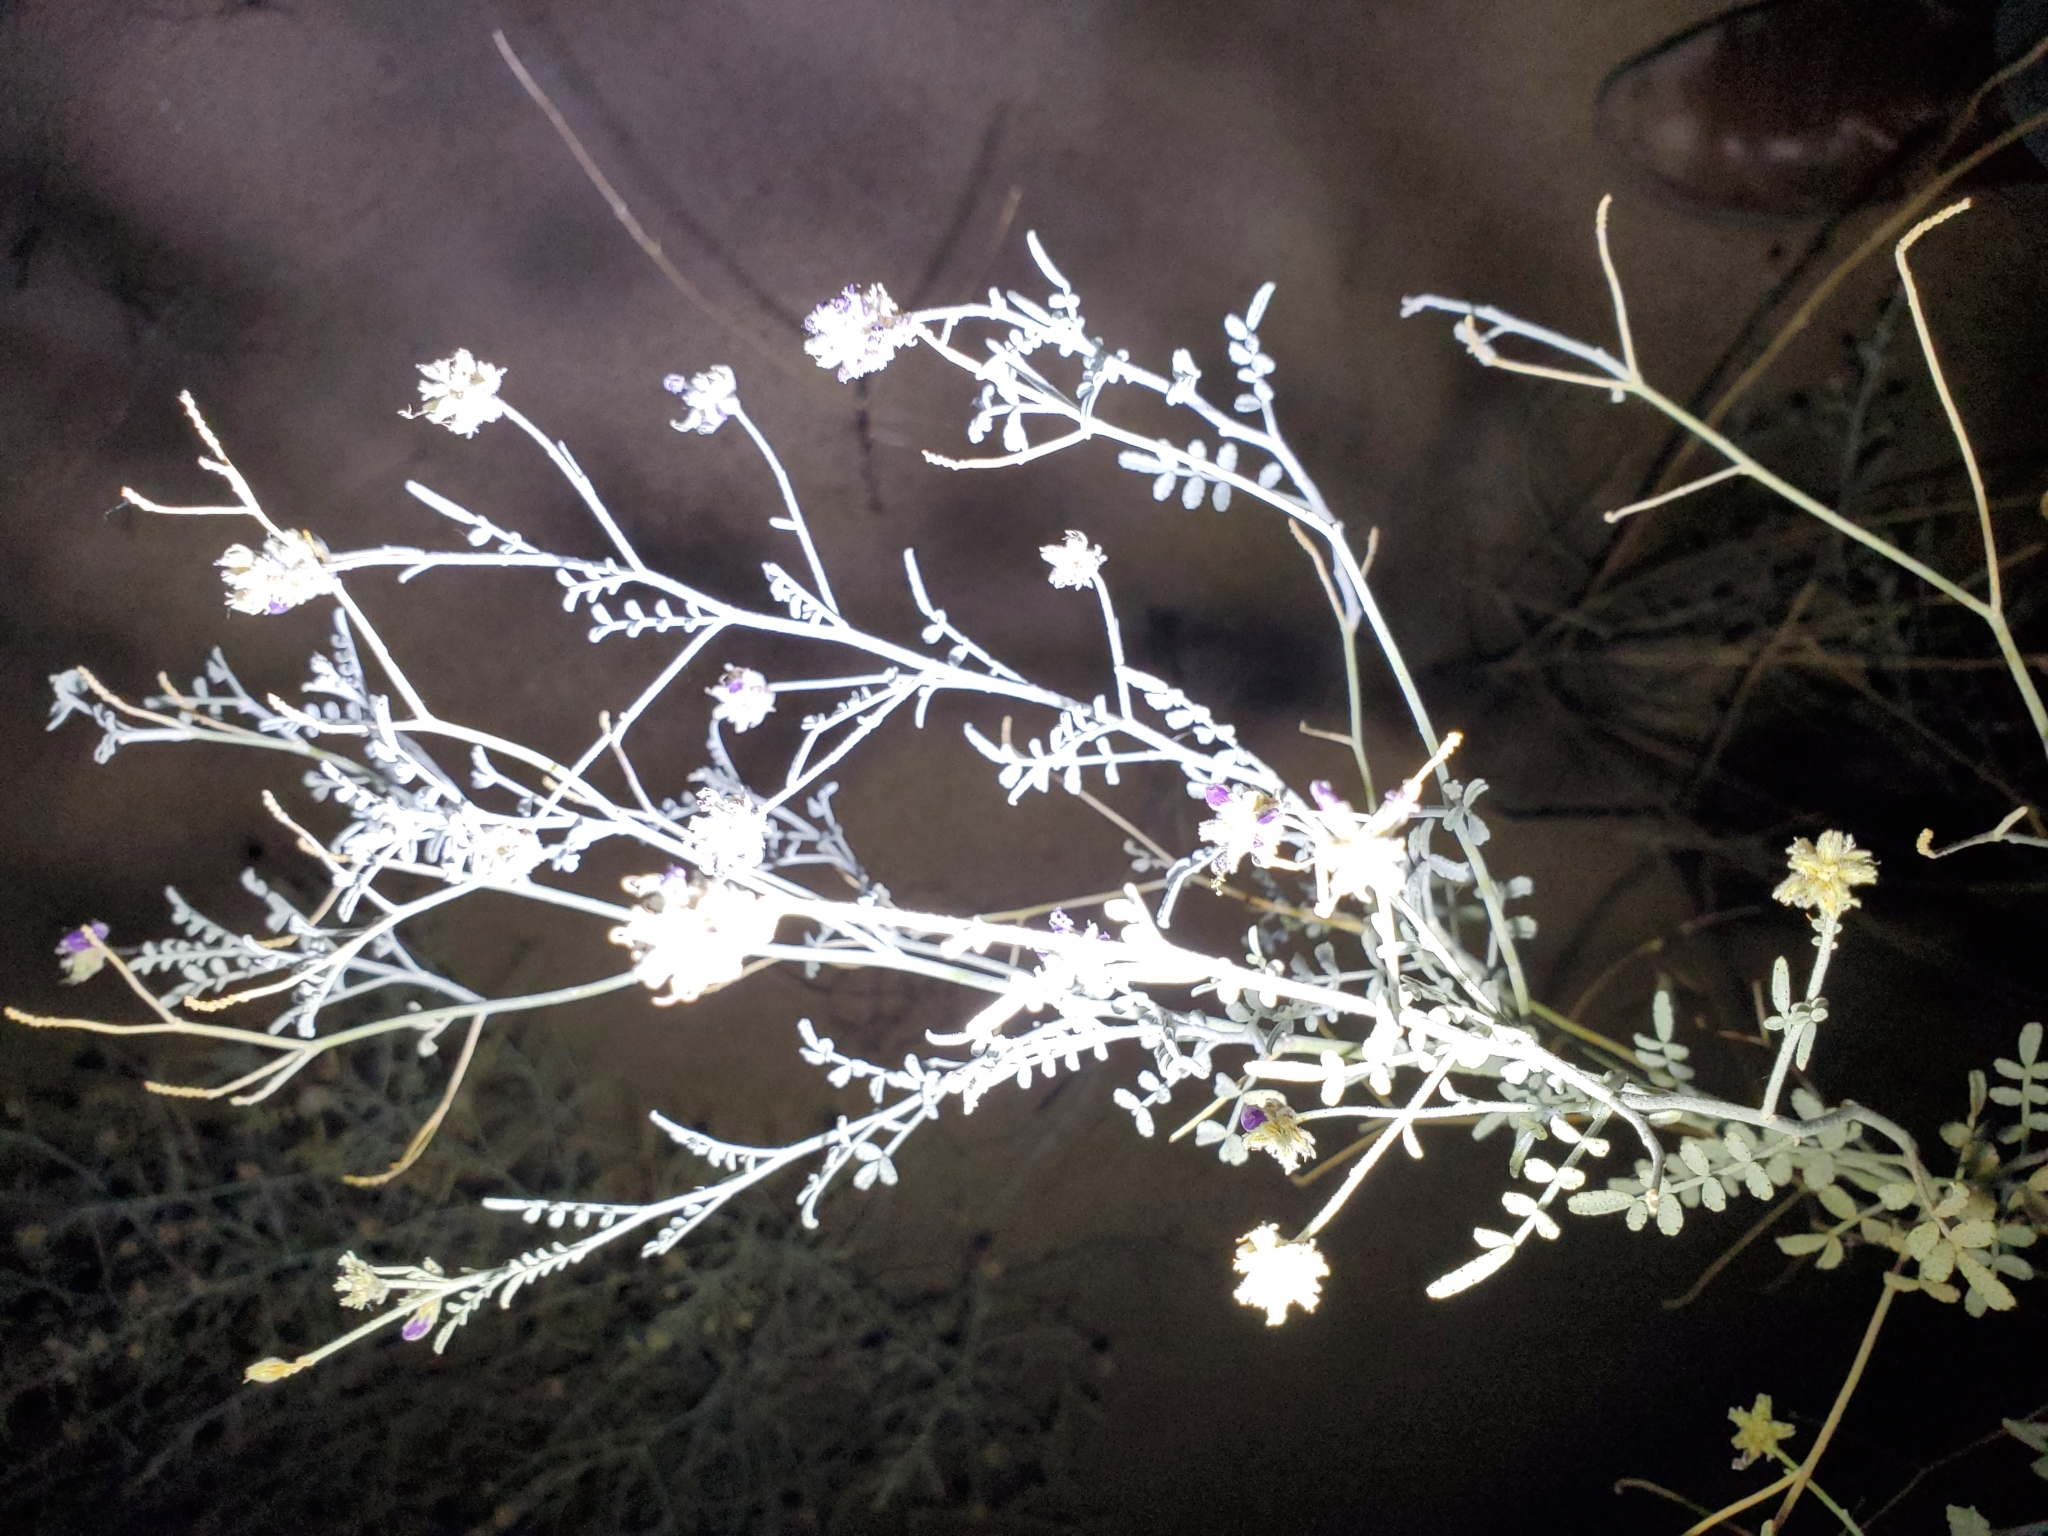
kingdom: Plantae
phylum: Tracheophyta
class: Magnoliopsida
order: Fabales
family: Fabaceae
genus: Psorothamnus
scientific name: Psorothamnus emoryi
